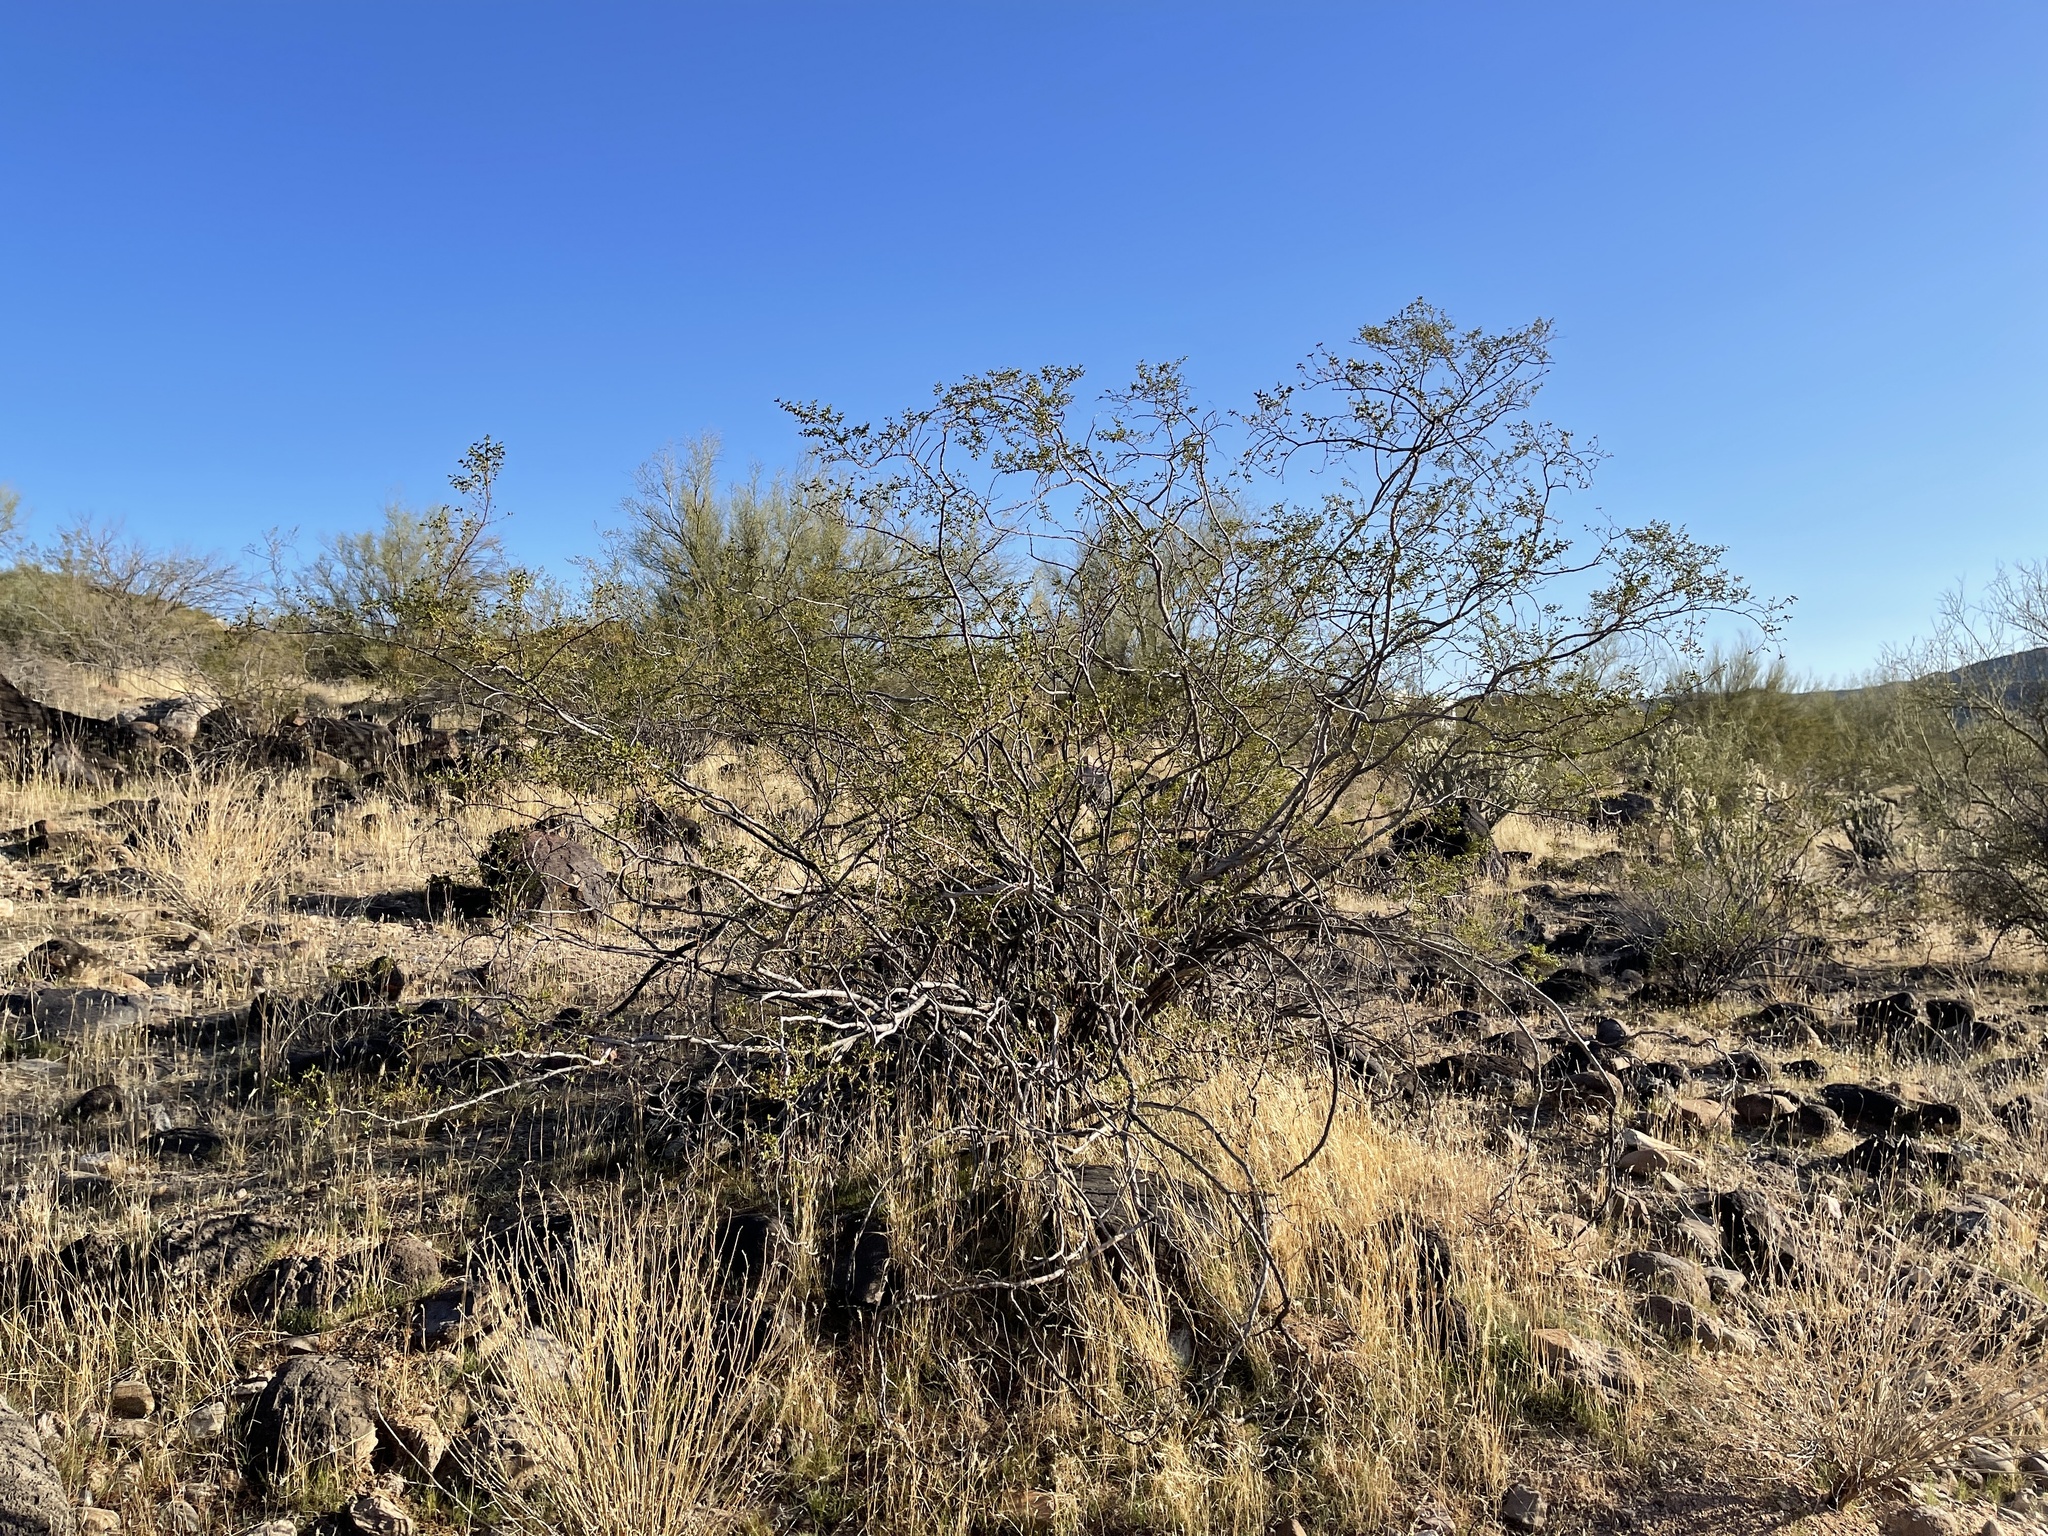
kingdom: Plantae
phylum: Tracheophyta
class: Magnoliopsida
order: Zygophyllales
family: Zygophyllaceae
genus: Larrea
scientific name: Larrea tridentata
